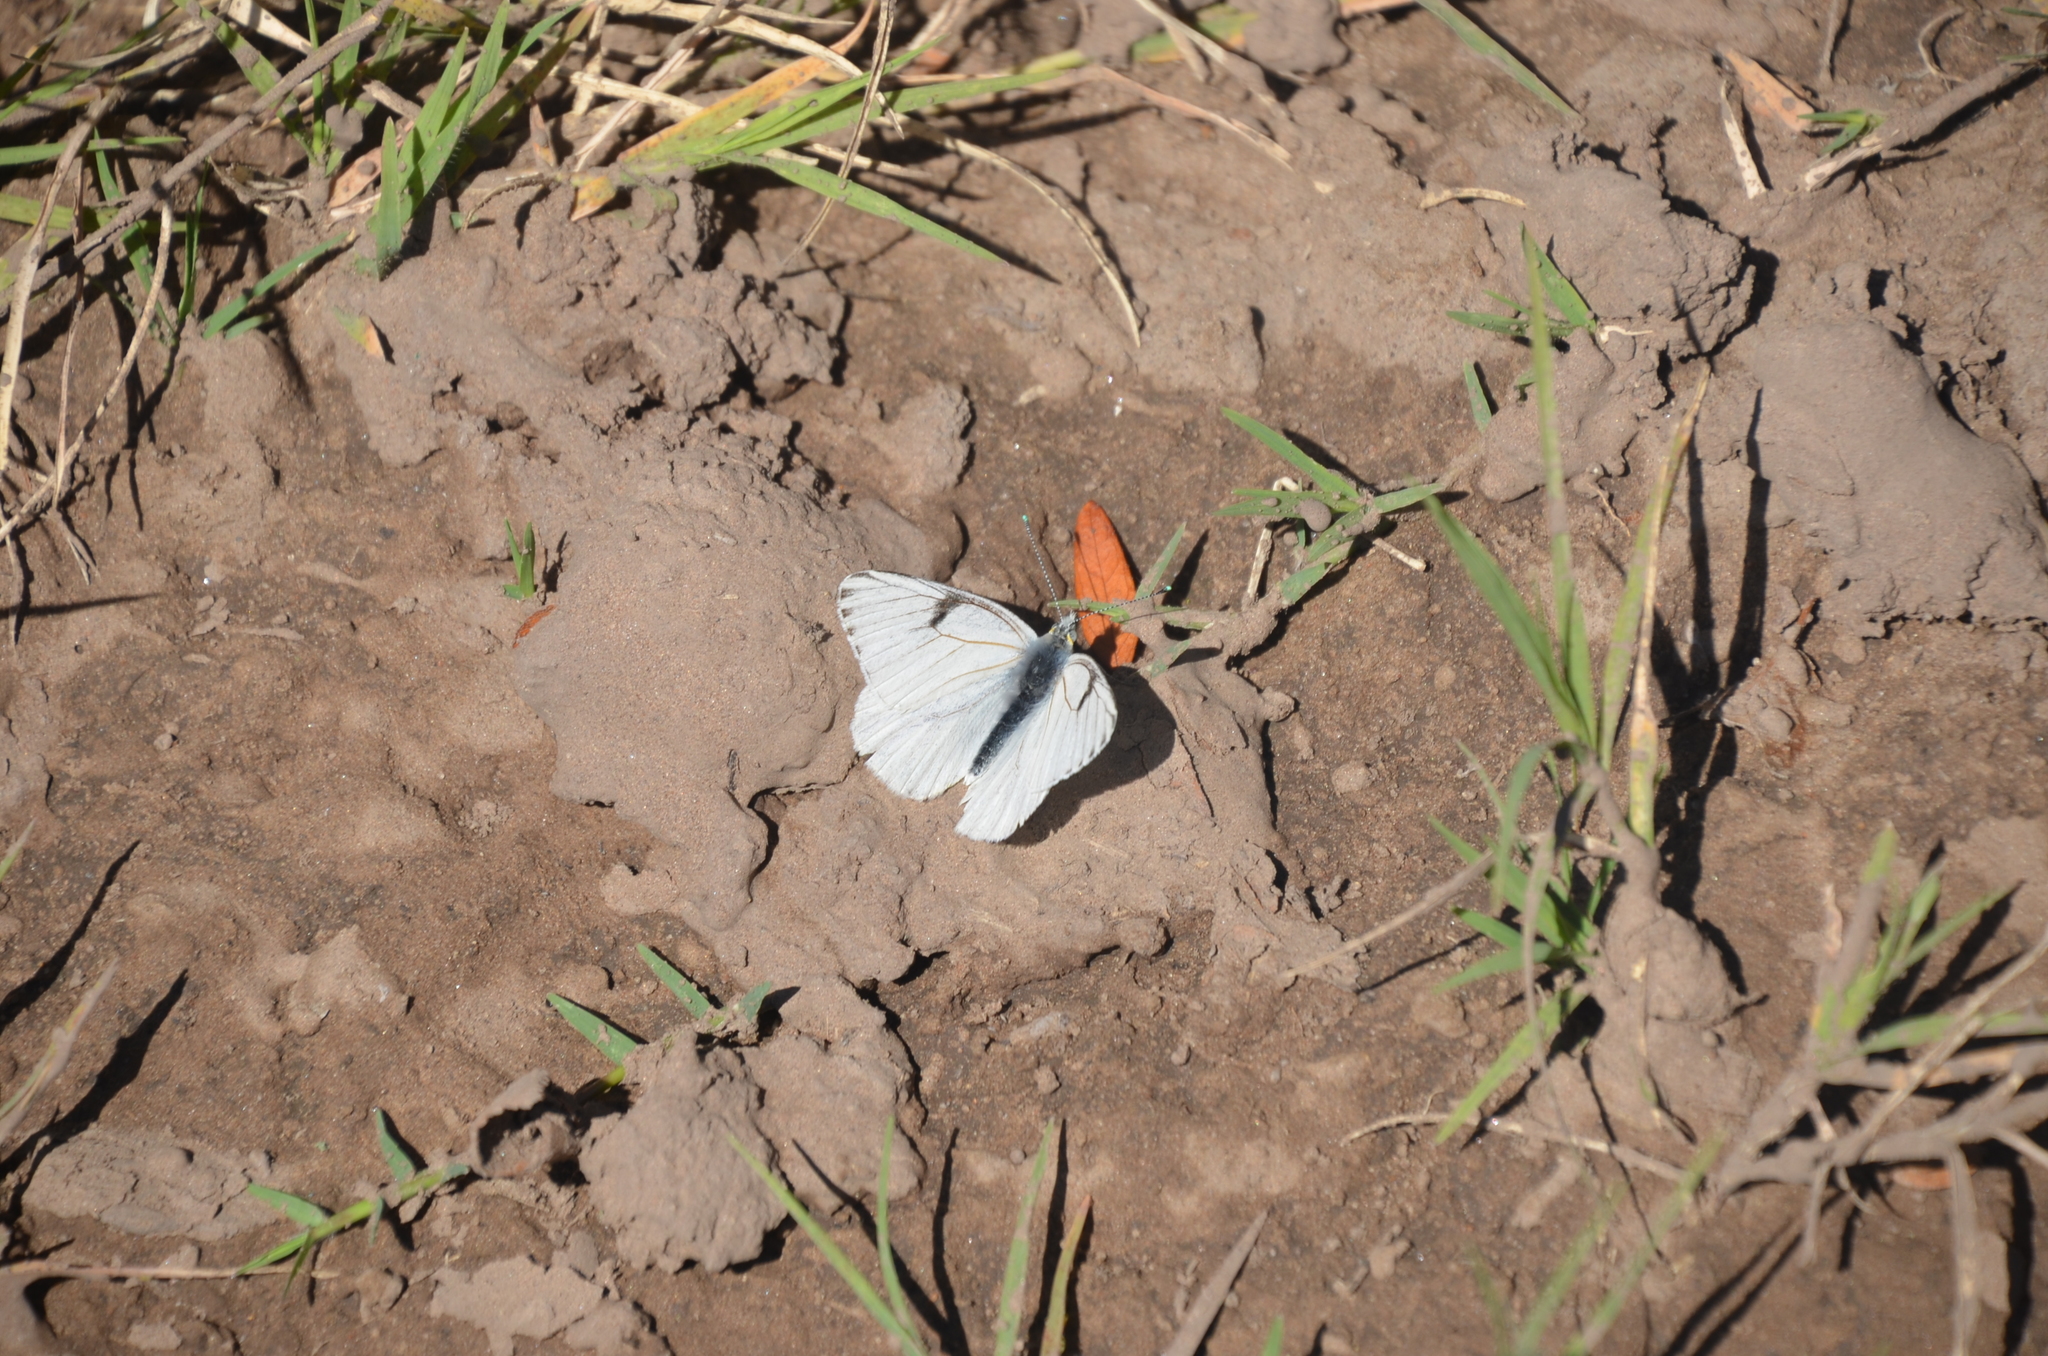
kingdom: Animalia
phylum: Arthropoda
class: Insecta
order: Lepidoptera
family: Pieridae
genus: Tatochila
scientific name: Tatochila mercedis
